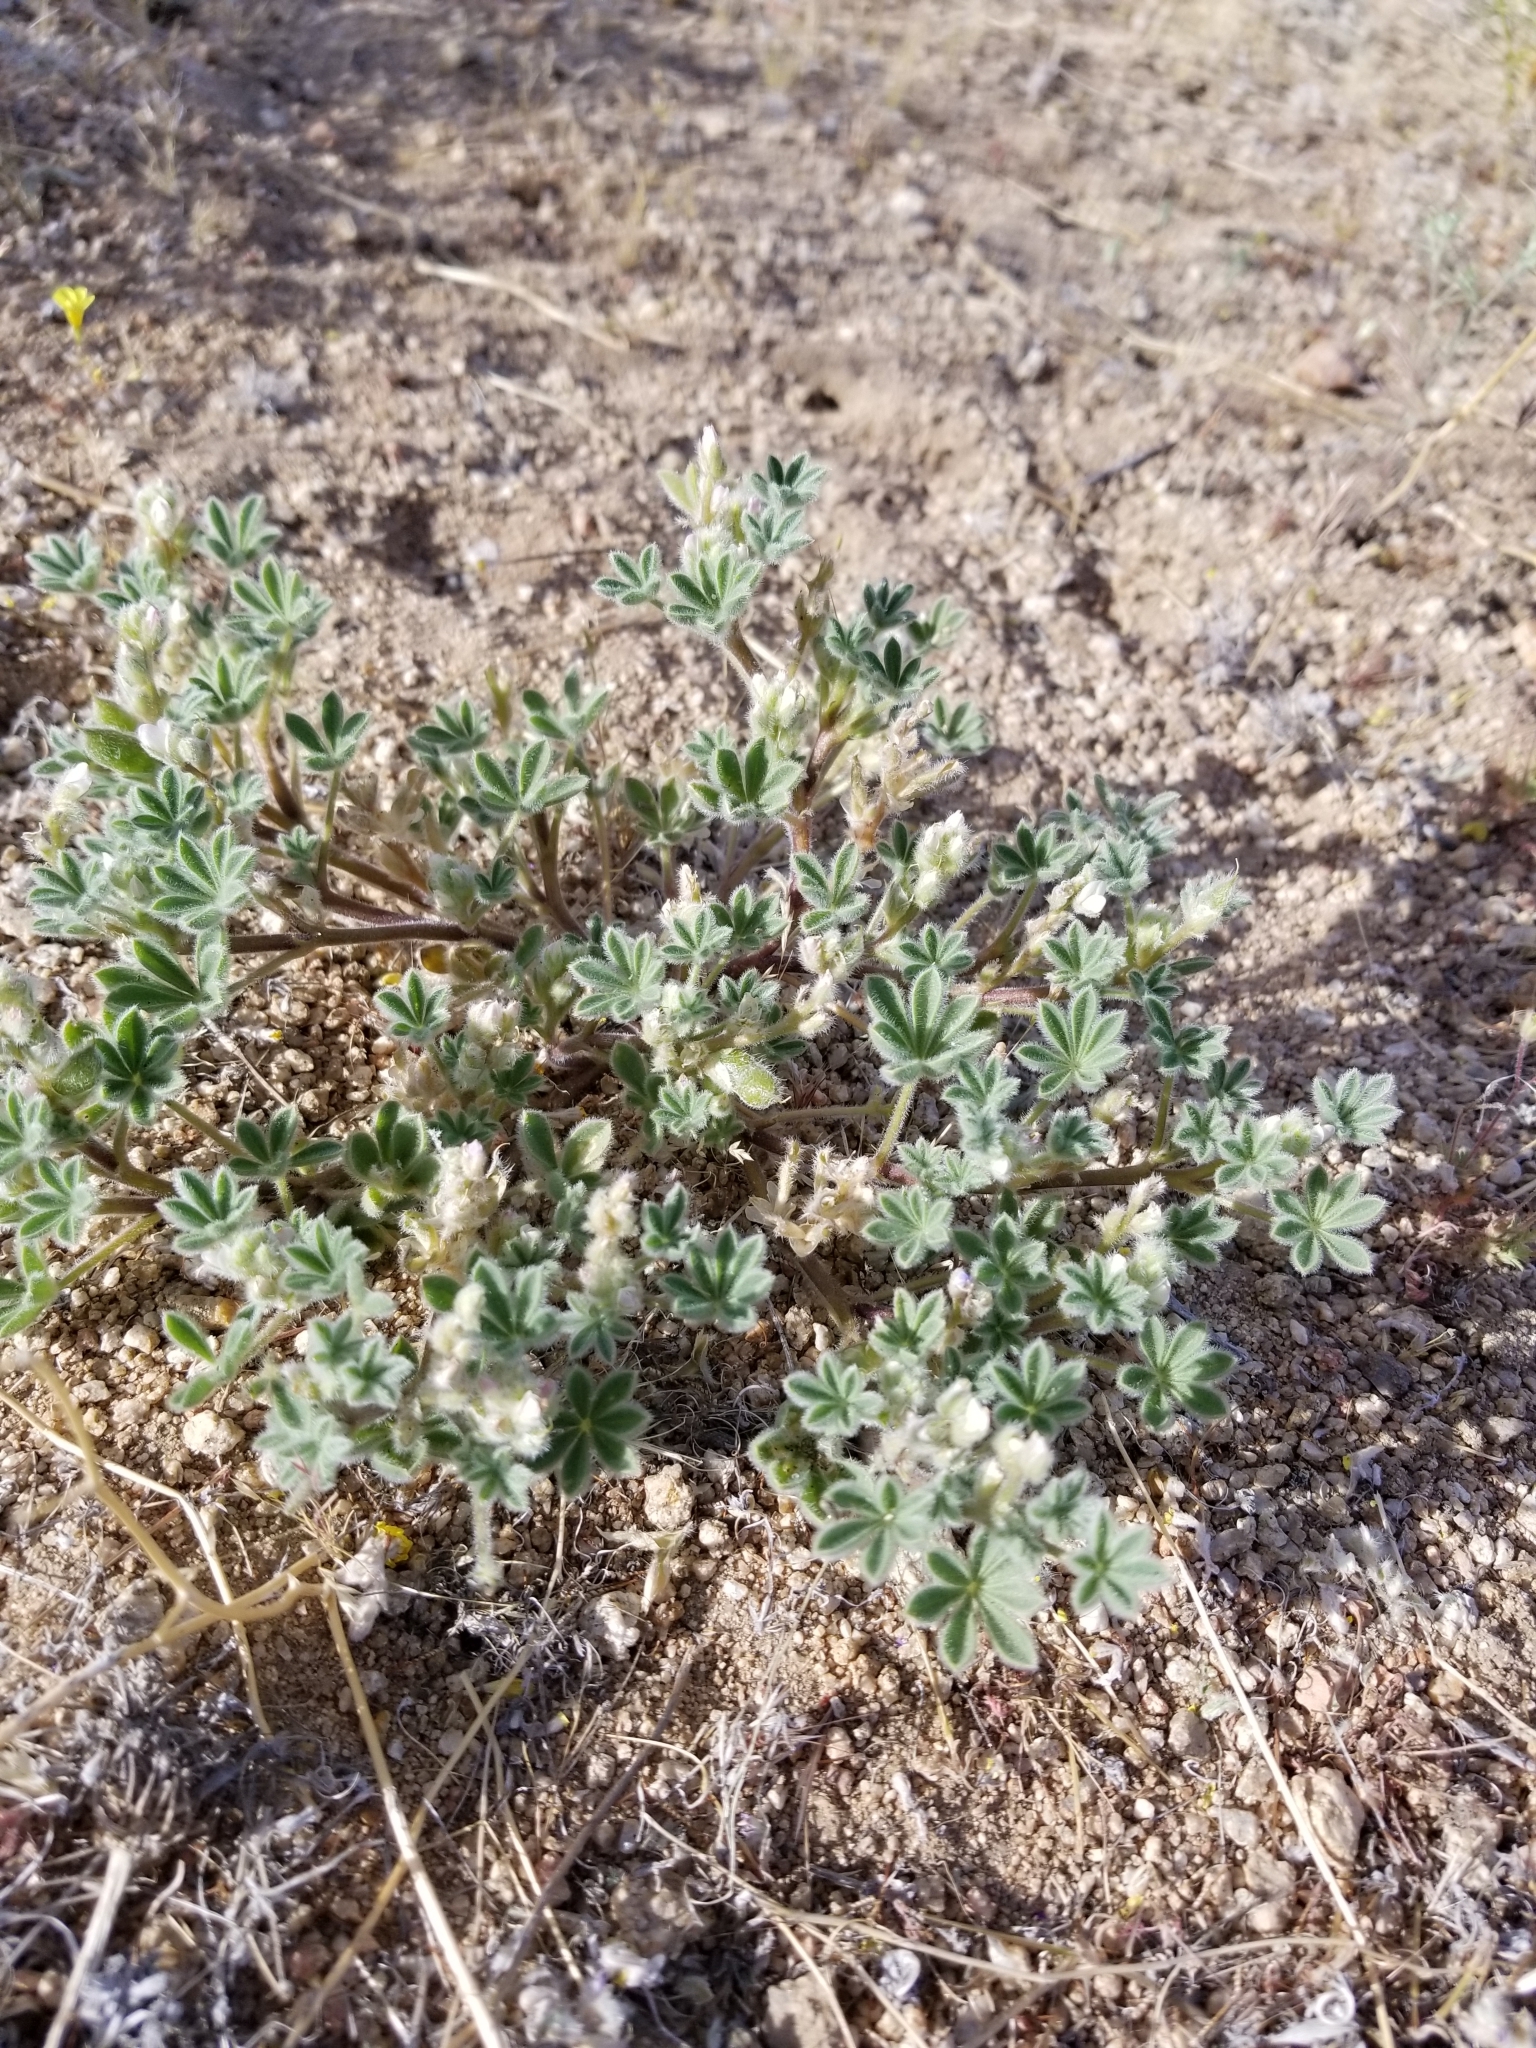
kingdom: Plantae
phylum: Tracheophyta
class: Magnoliopsida
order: Fabales
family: Fabaceae
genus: Lupinus
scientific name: Lupinus concinnus
